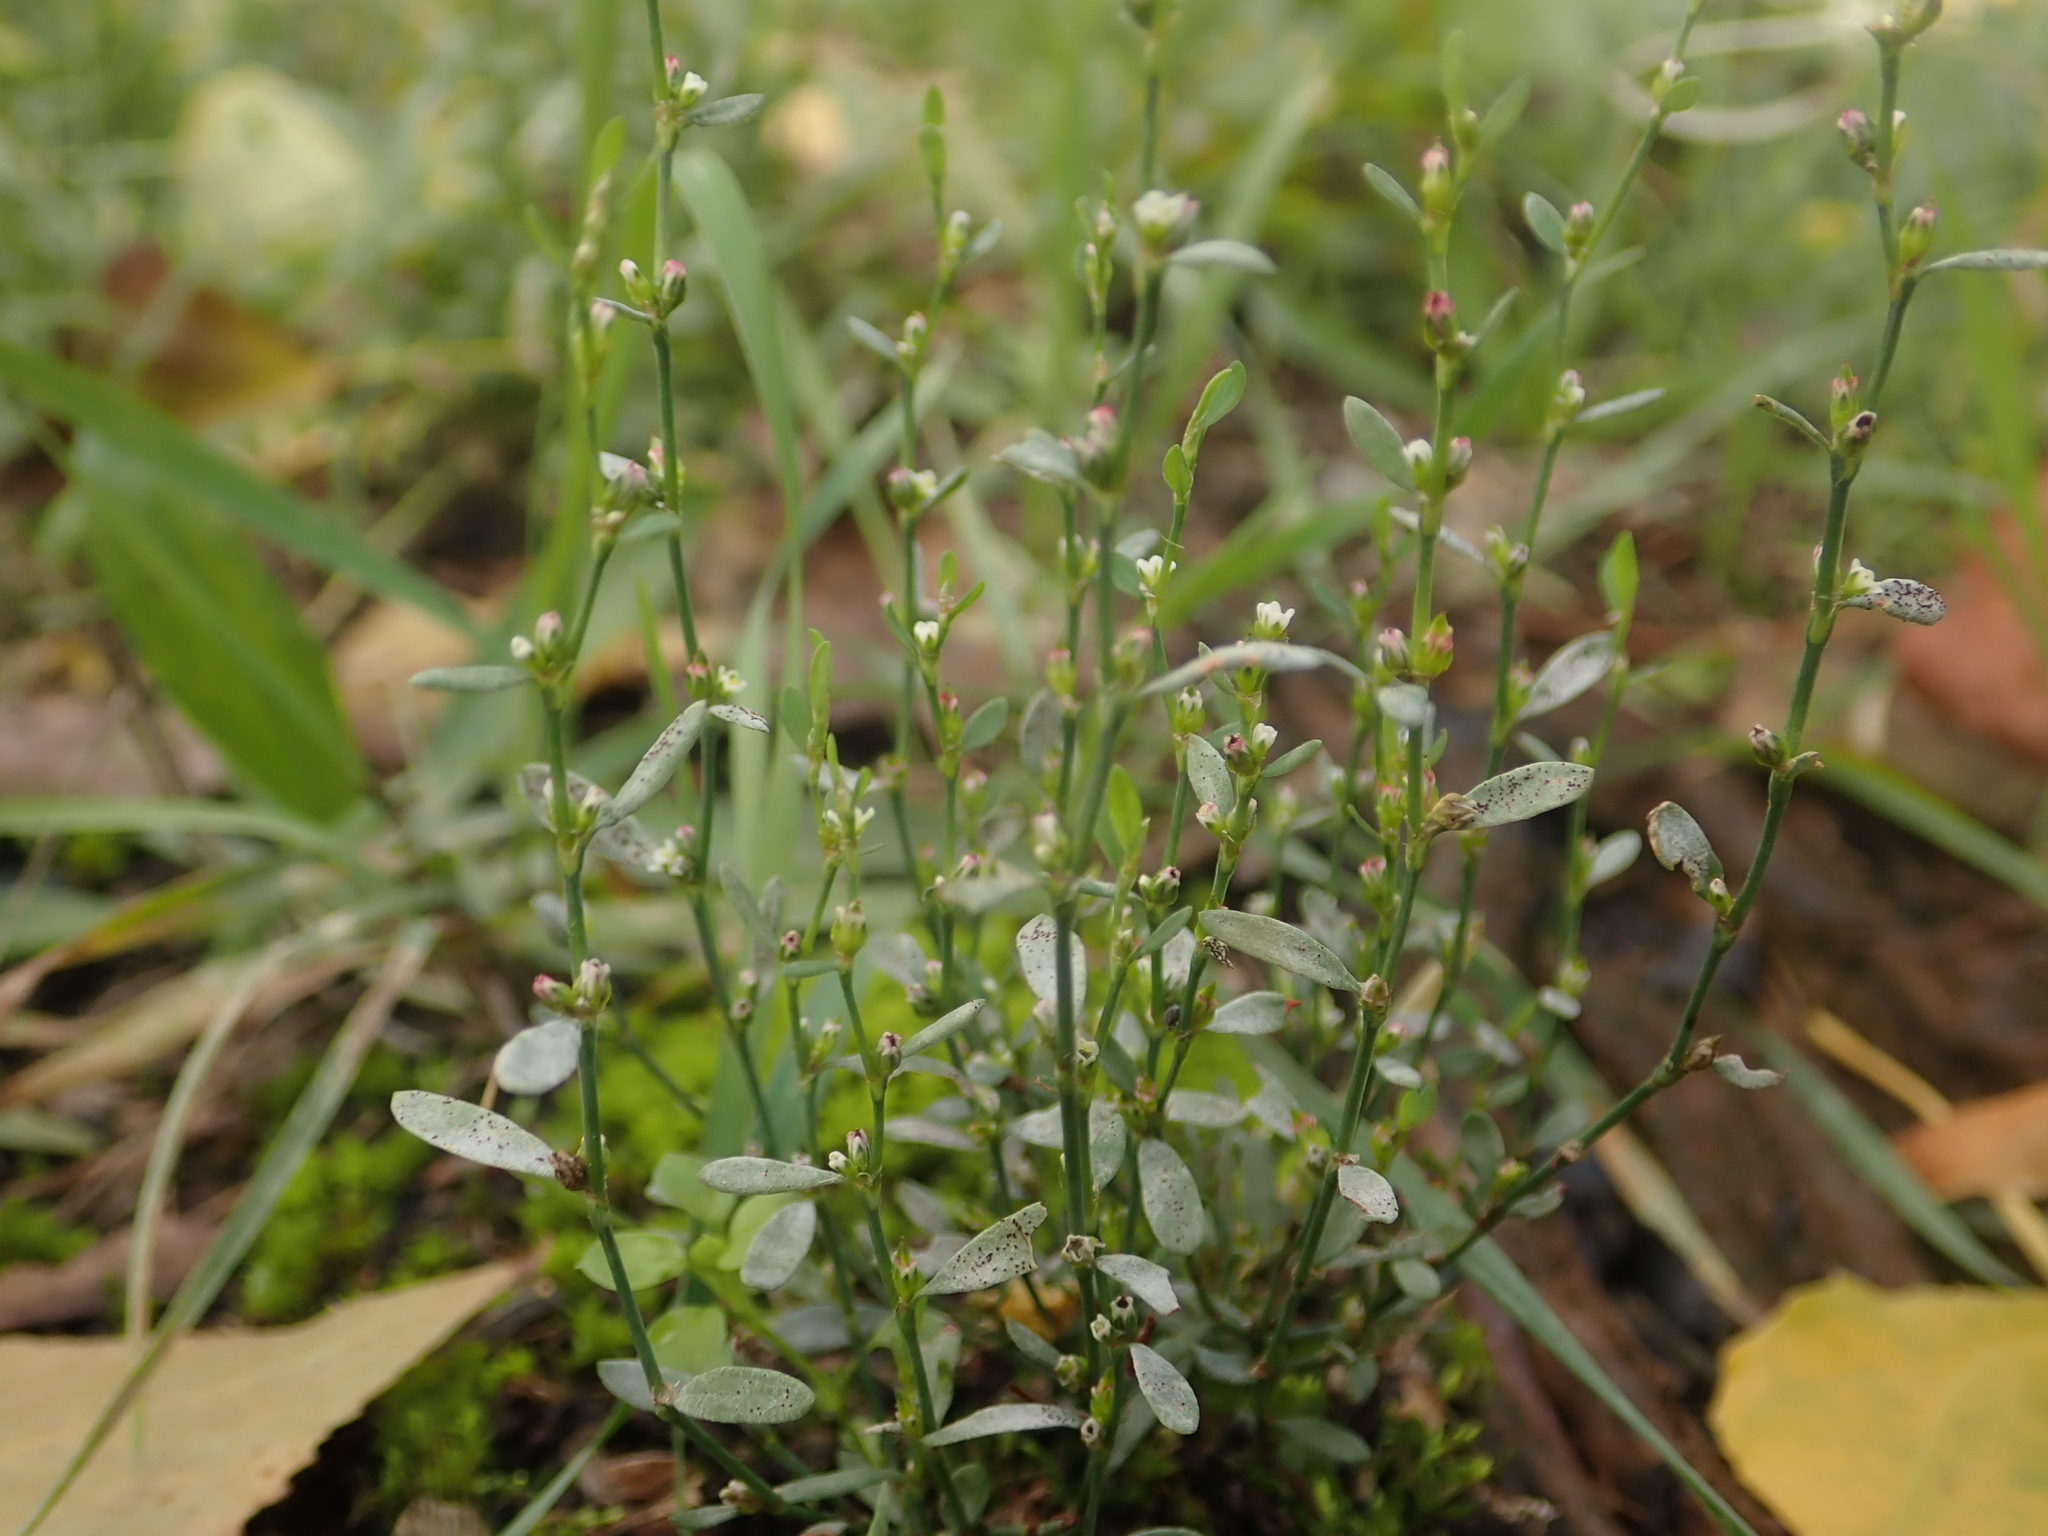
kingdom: Fungi
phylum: Ascomycota
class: Leotiomycetes
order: Helotiales
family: Erysiphaceae
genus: Erysiphe
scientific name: Erysiphe polygoni
